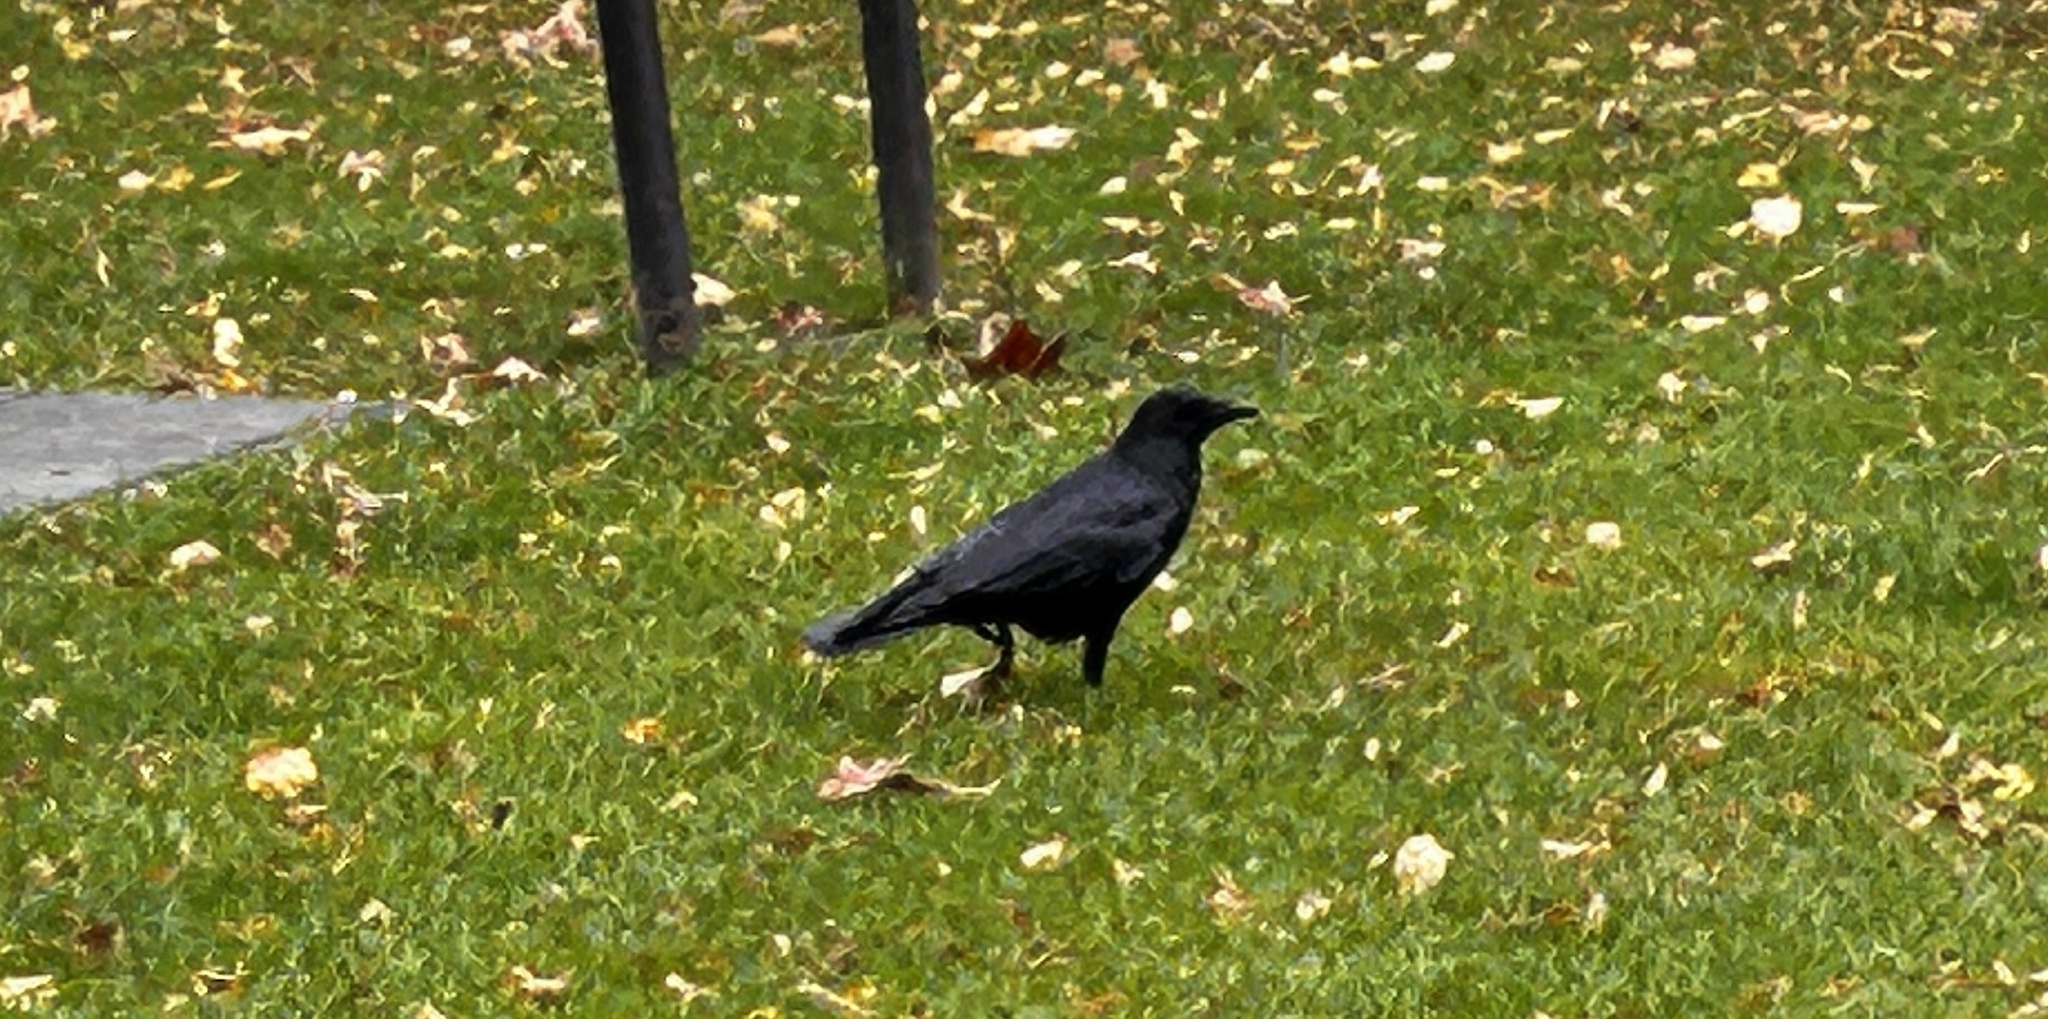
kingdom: Animalia
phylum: Chordata
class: Aves
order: Passeriformes
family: Corvidae
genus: Corvus
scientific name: Corvus corone
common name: Carrion crow
